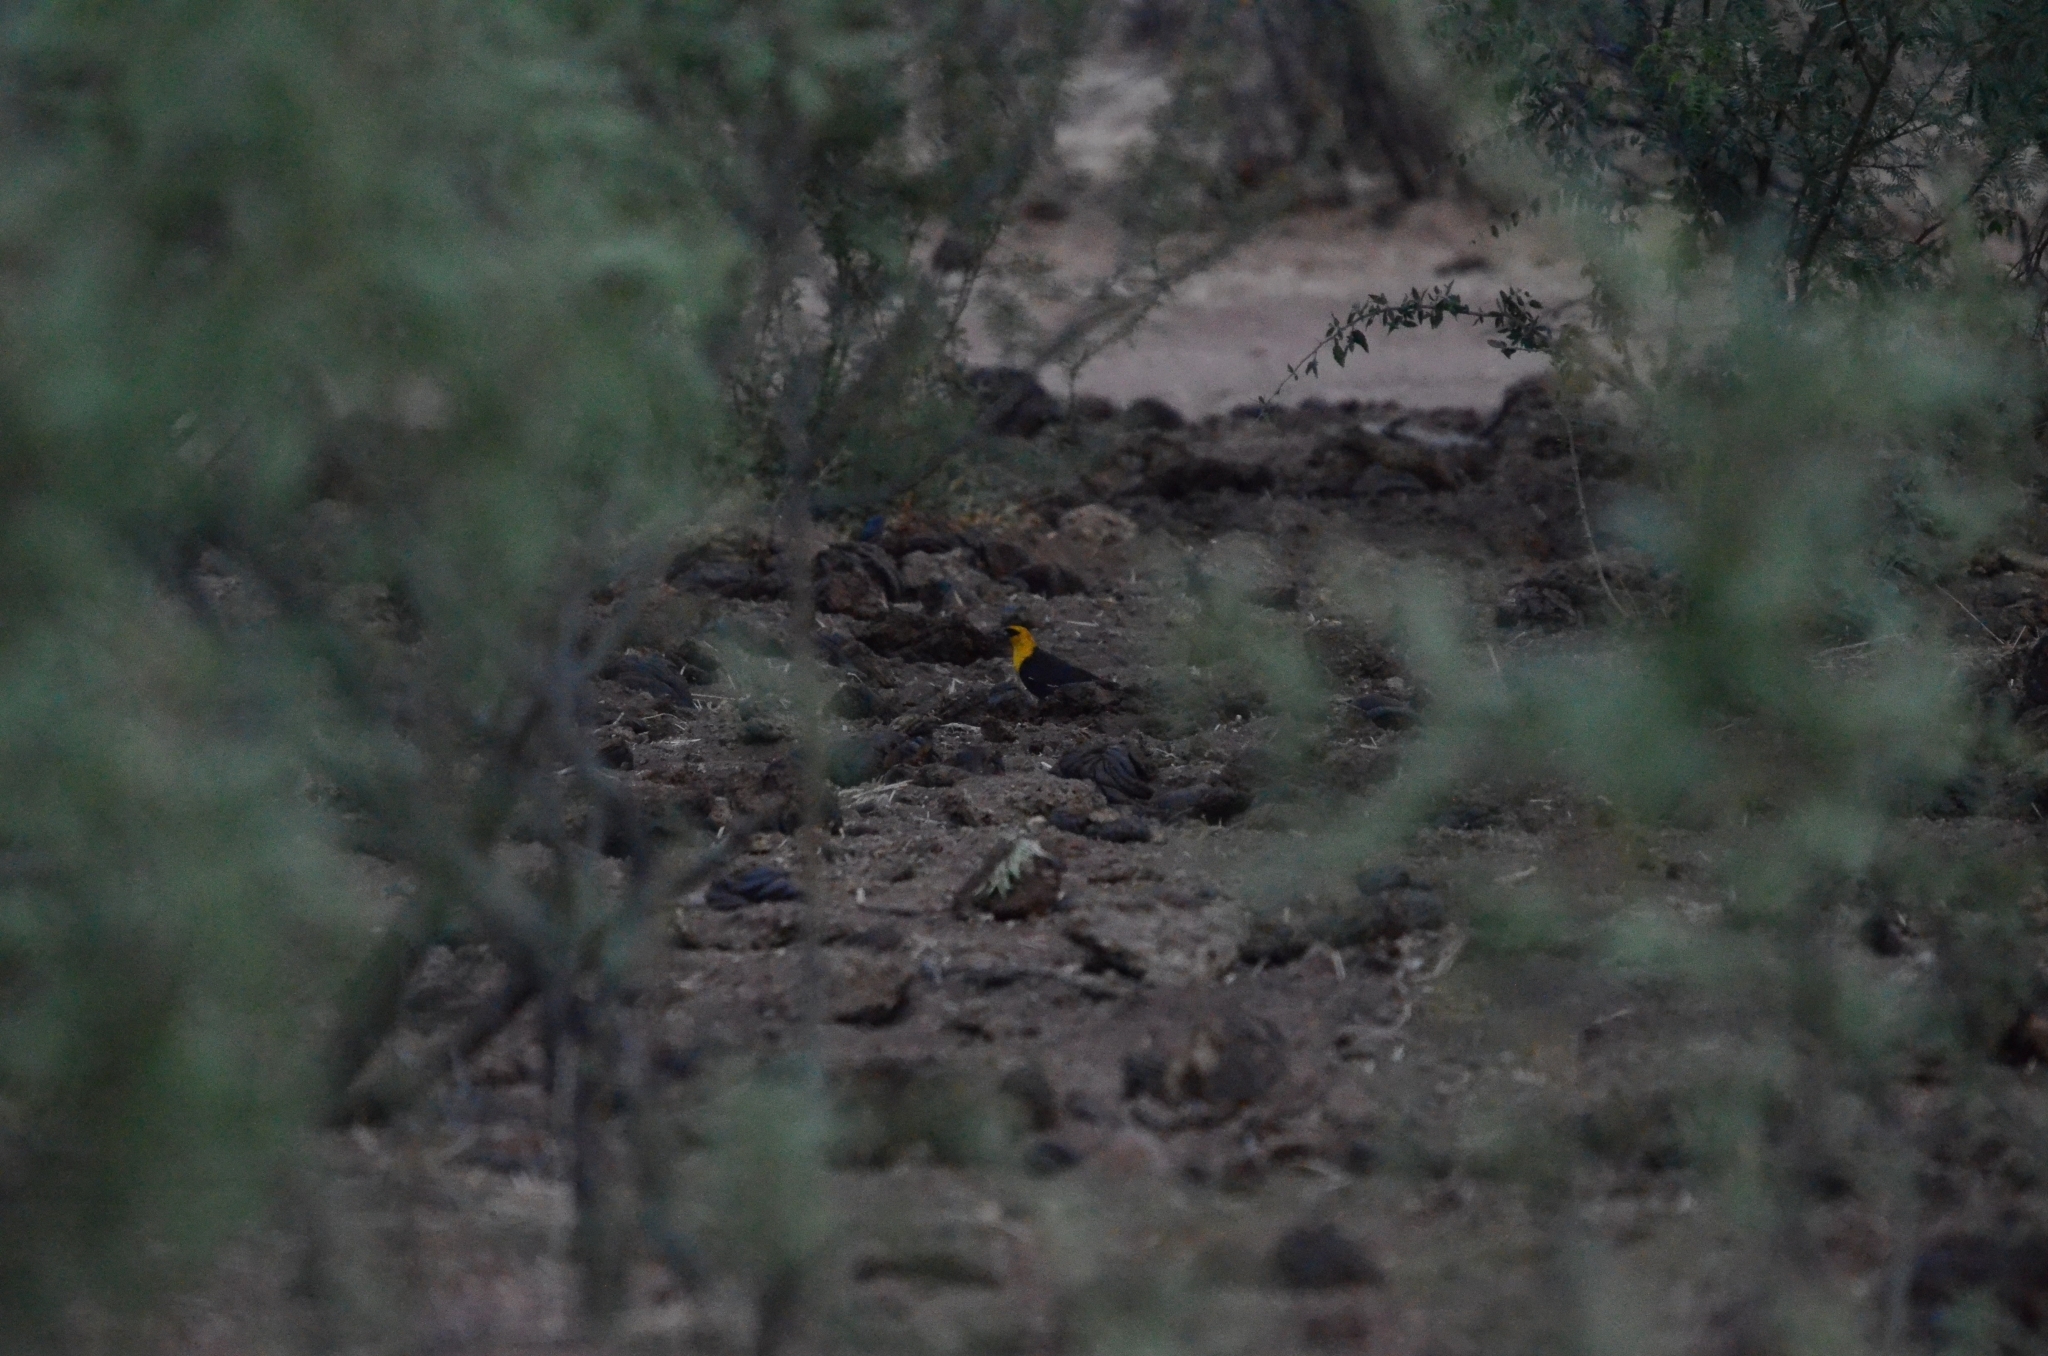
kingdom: Animalia
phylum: Chordata
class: Aves
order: Passeriformes
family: Icteridae
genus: Xanthocephalus
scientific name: Xanthocephalus xanthocephalus
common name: Yellow-headed blackbird
